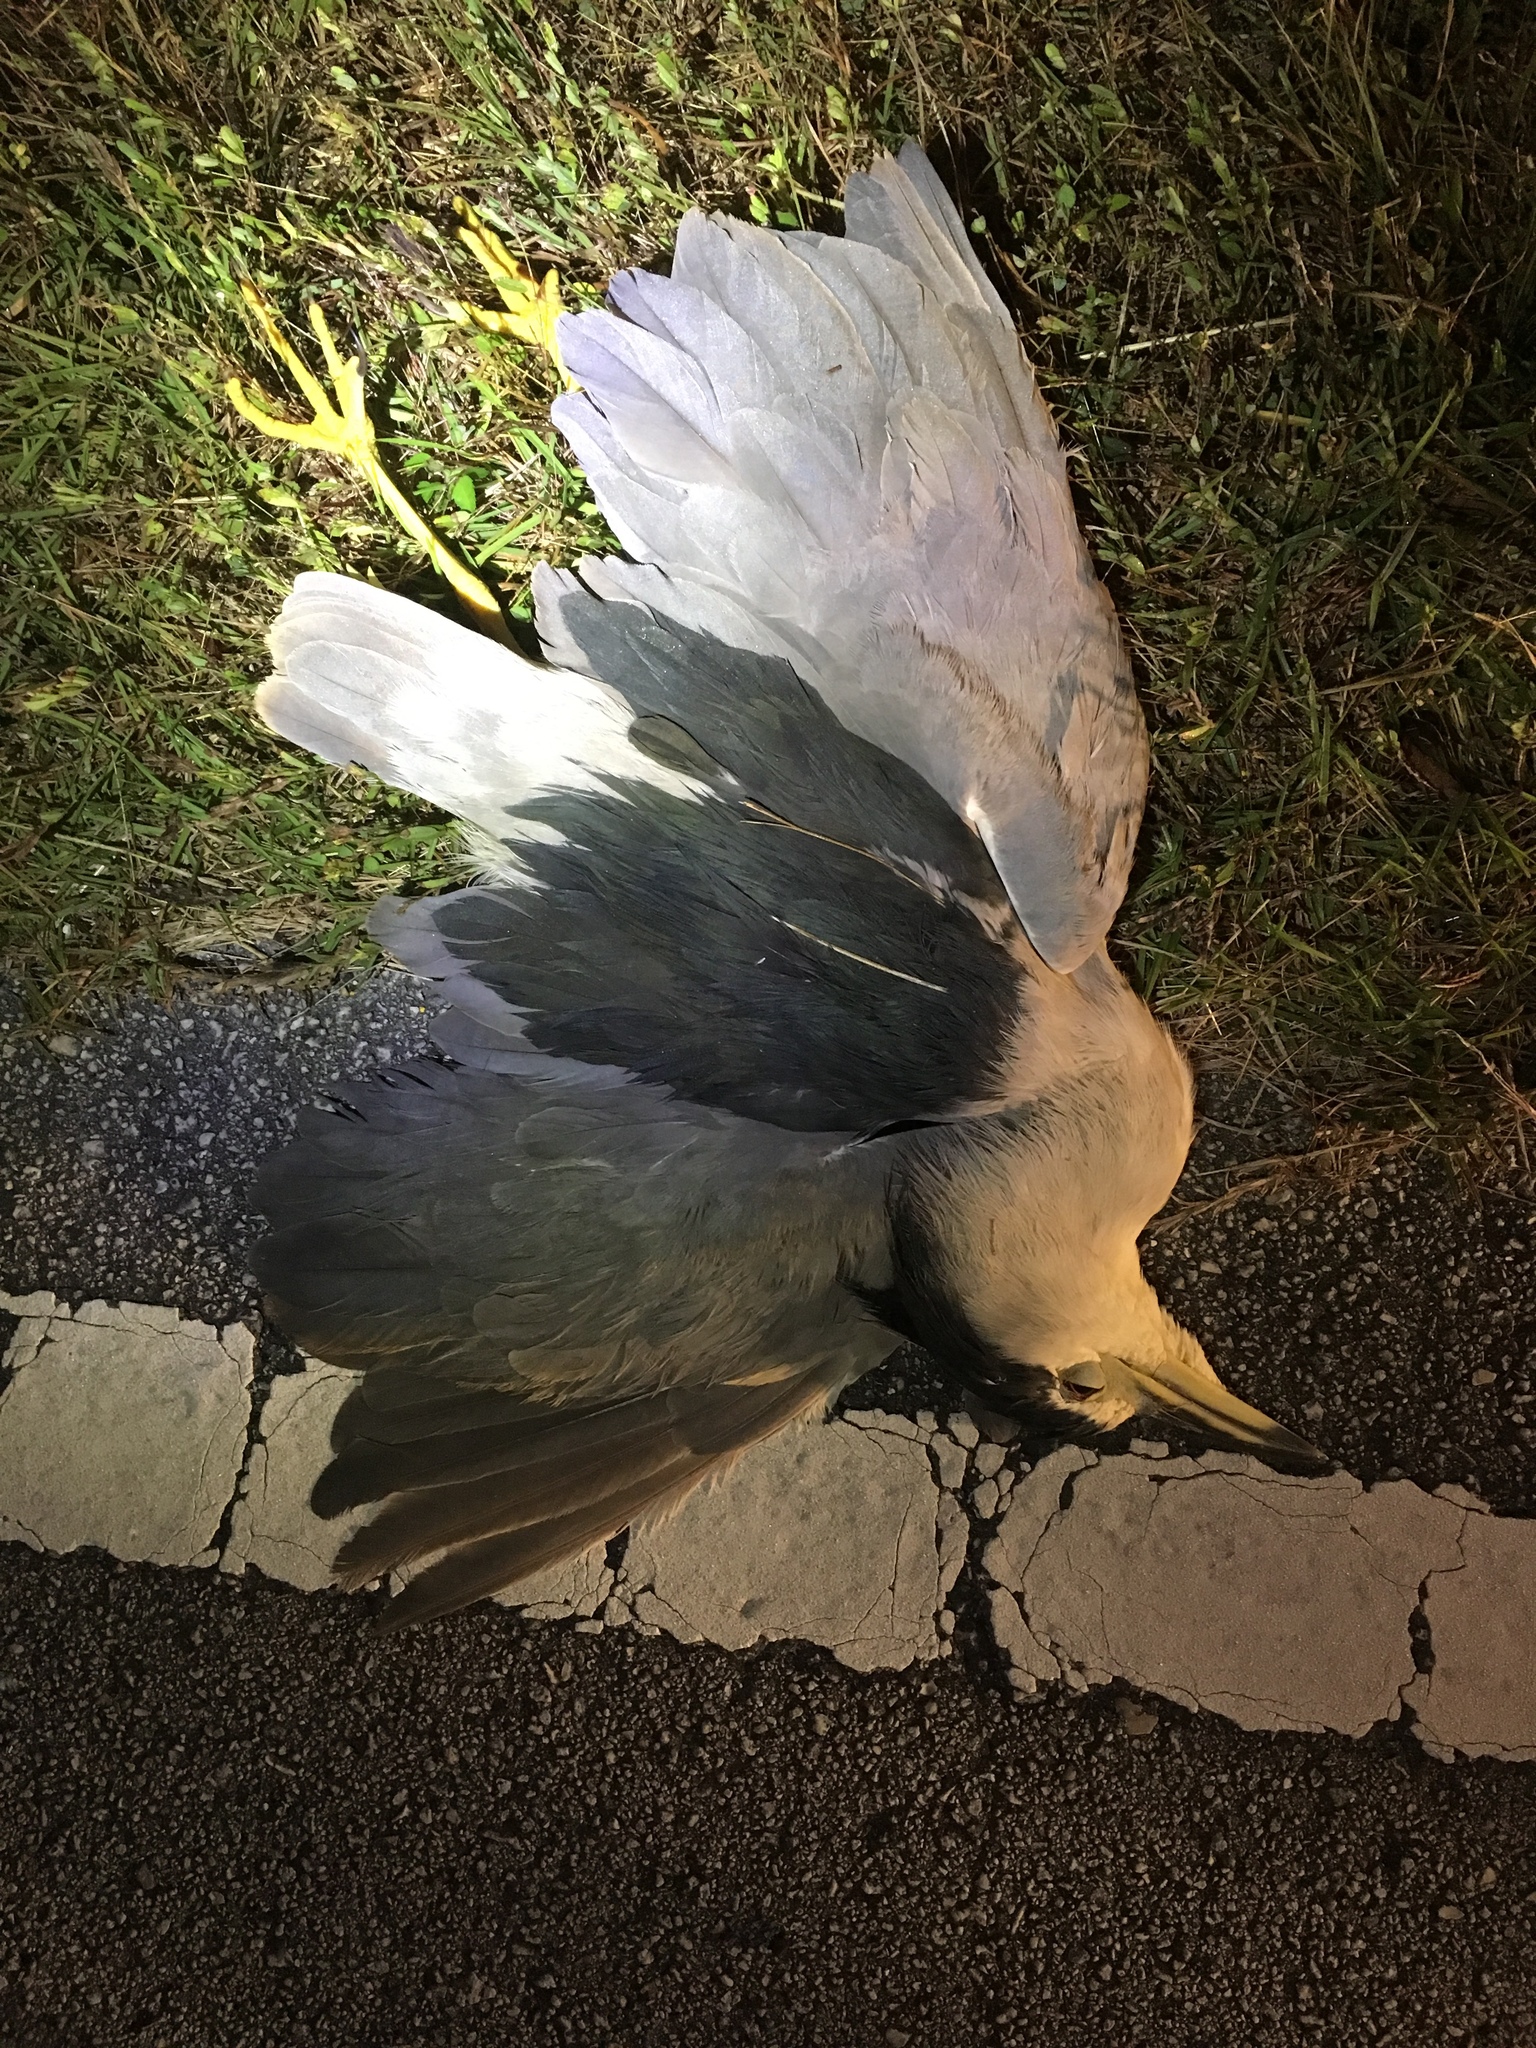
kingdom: Animalia
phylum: Chordata
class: Aves
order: Pelecaniformes
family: Ardeidae
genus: Nycticorax
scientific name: Nycticorax nycticorax
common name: Black-crowned night heron
